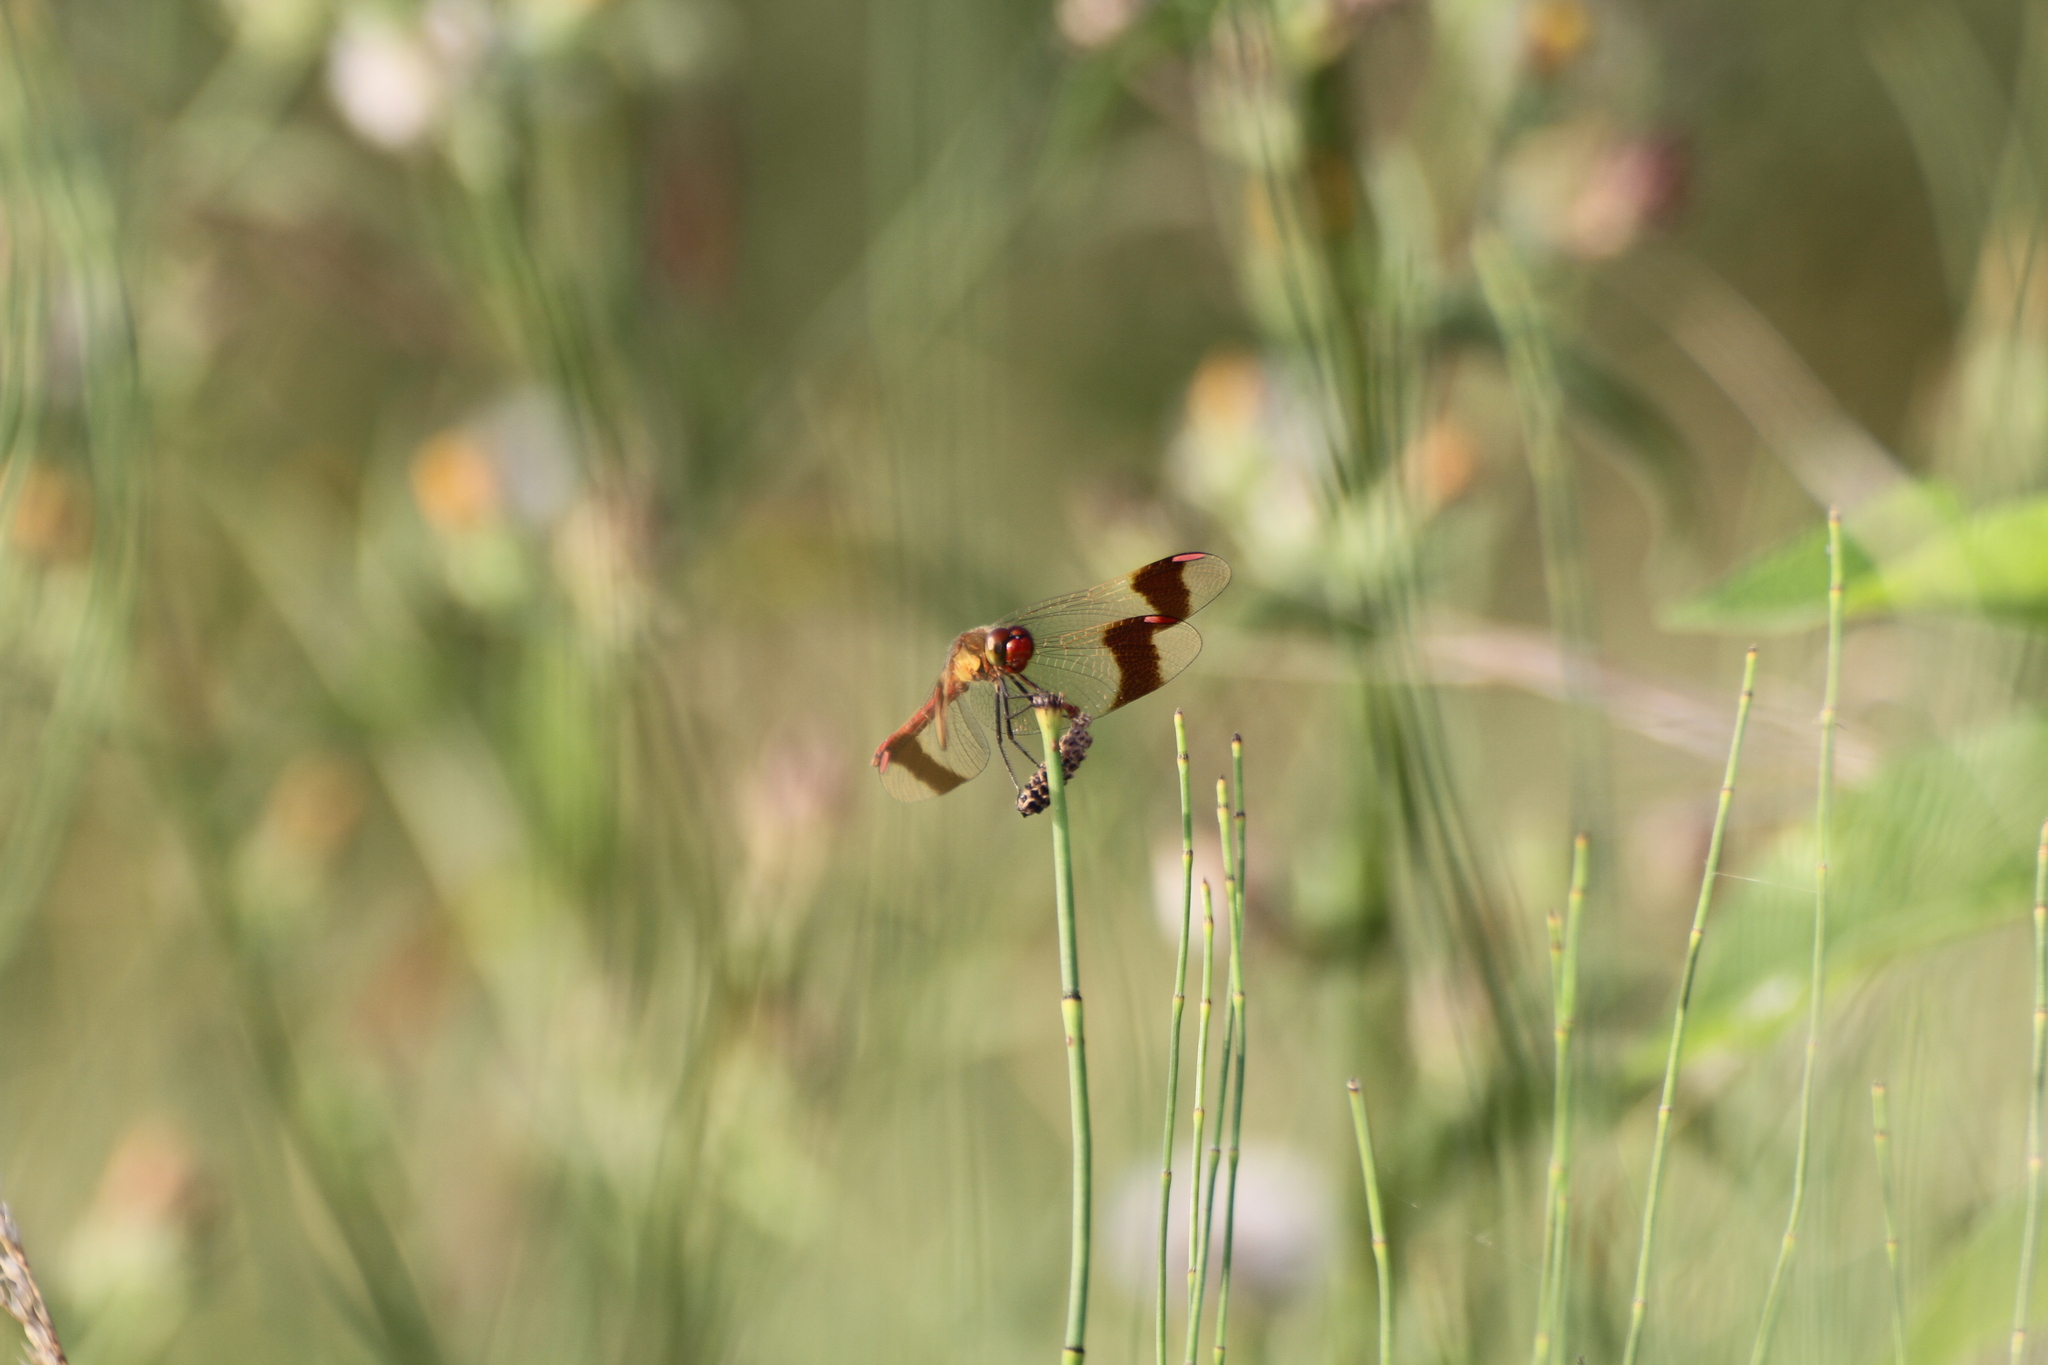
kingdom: Animalia
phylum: Arthropoda
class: Insecta
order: Odonata
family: Libellulidae
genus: Sympetrum
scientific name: Sympetrum pedemontanum
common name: Banded darter
